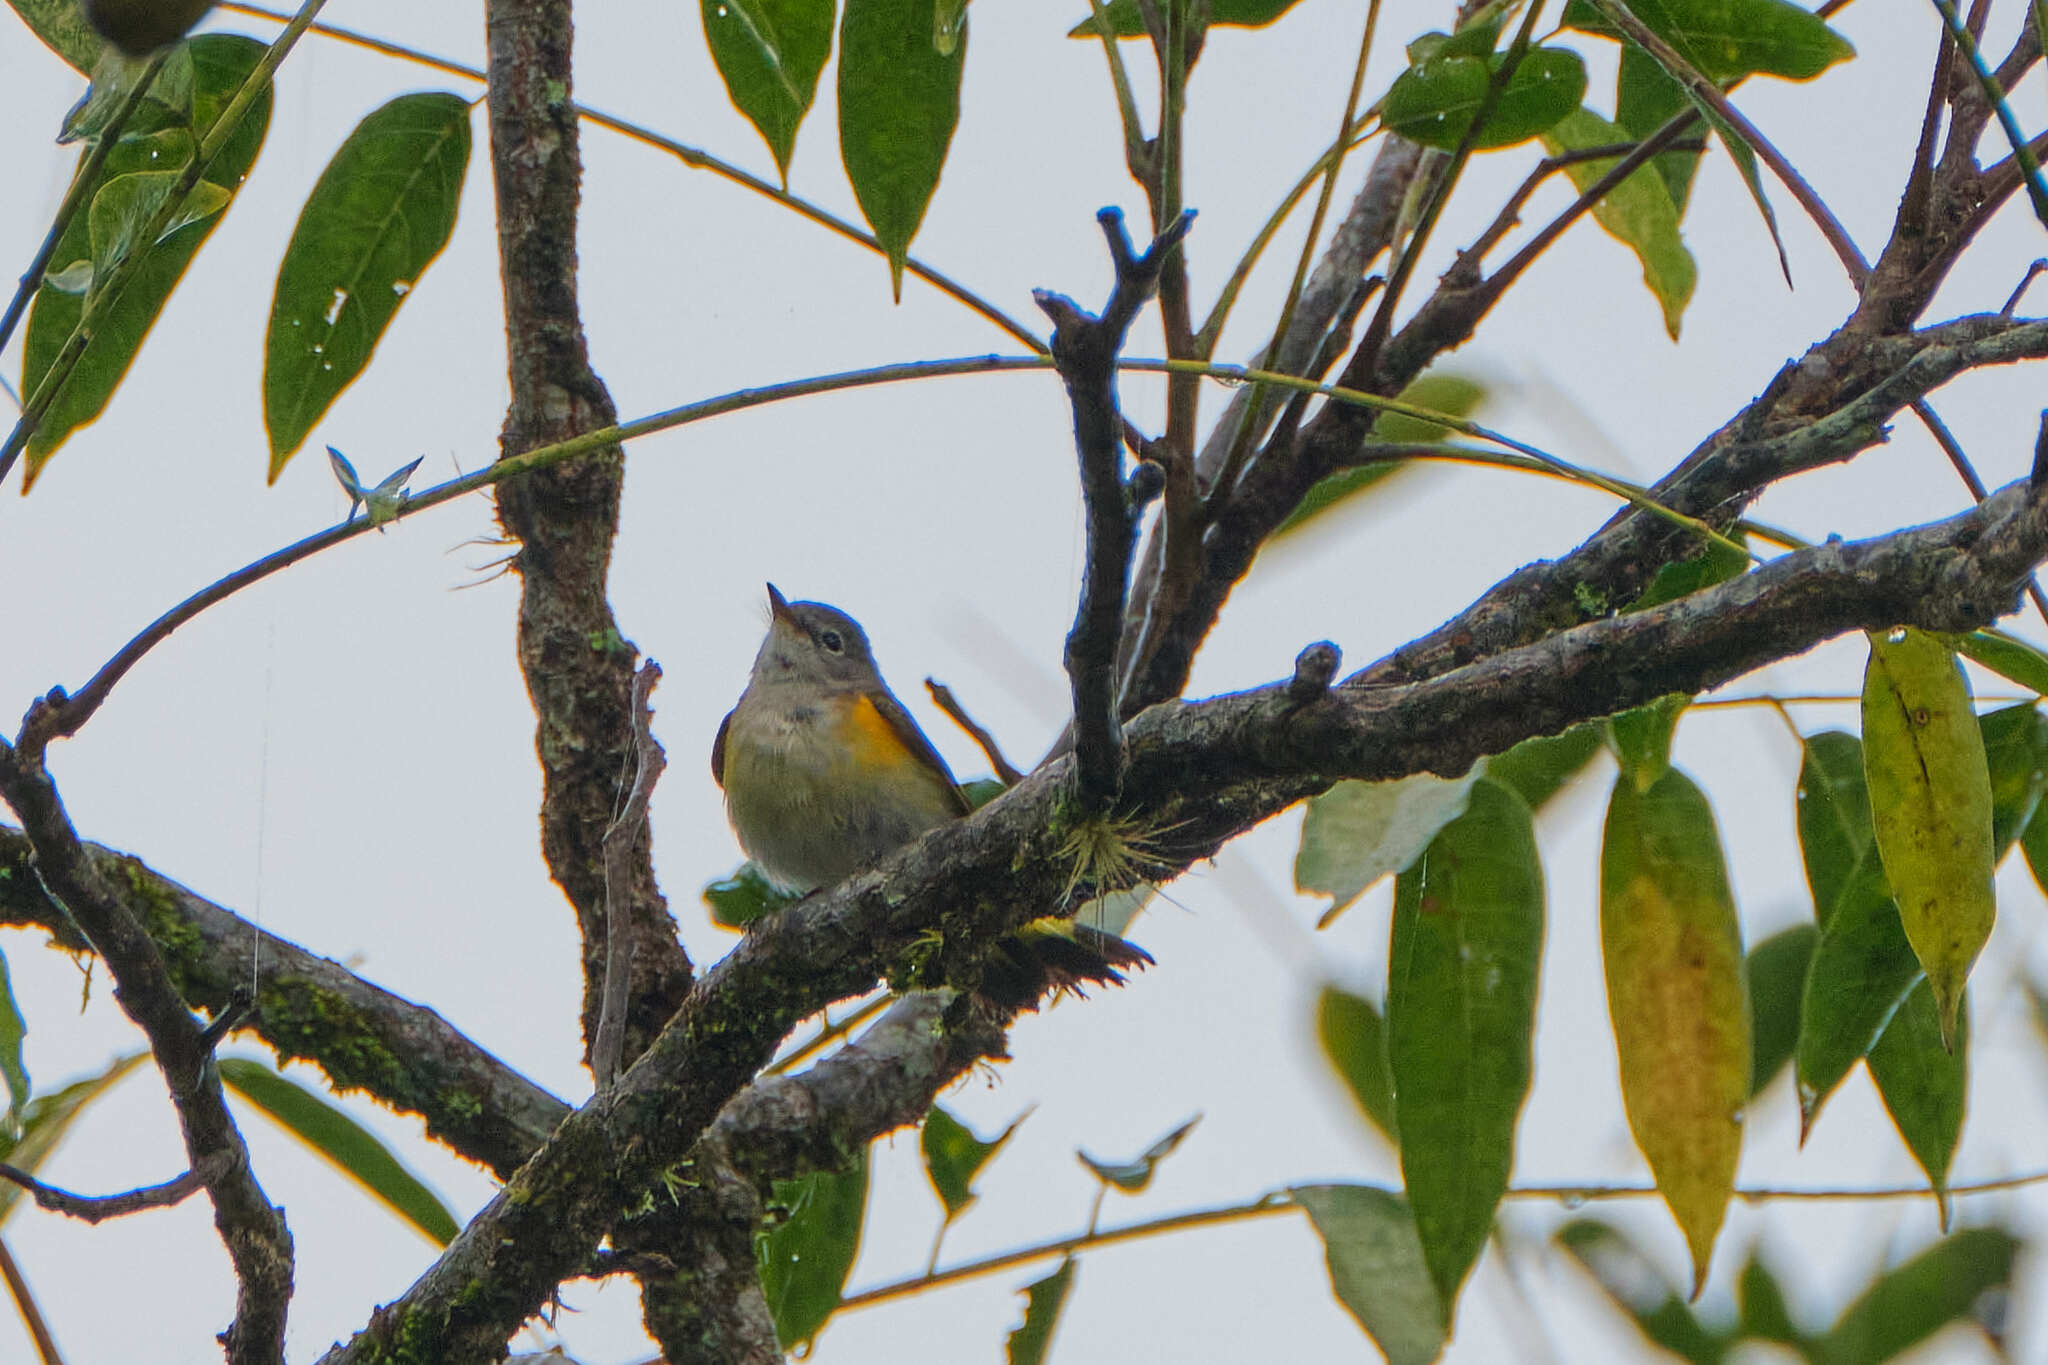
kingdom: Animalia
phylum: Chordata
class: Aves
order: Passeriformes
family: Parulidae
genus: Setophaga
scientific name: Setophaga ruticilla
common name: American redstart
